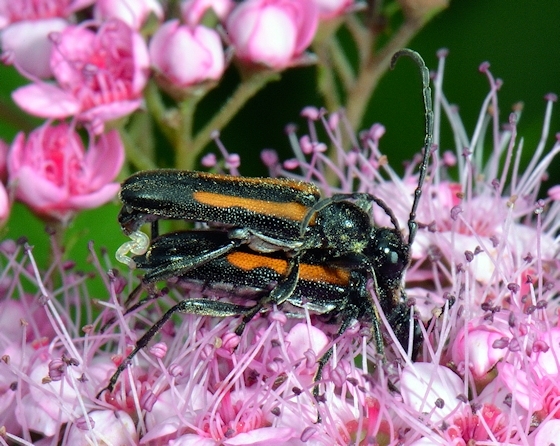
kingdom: Animalia
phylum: Arthropoda
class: Insecta
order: Coleoptera
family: Cerambycidae
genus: Strangalepta
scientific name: Strangalepta abbreviata
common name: Strangalepta flower longhorn beetle
